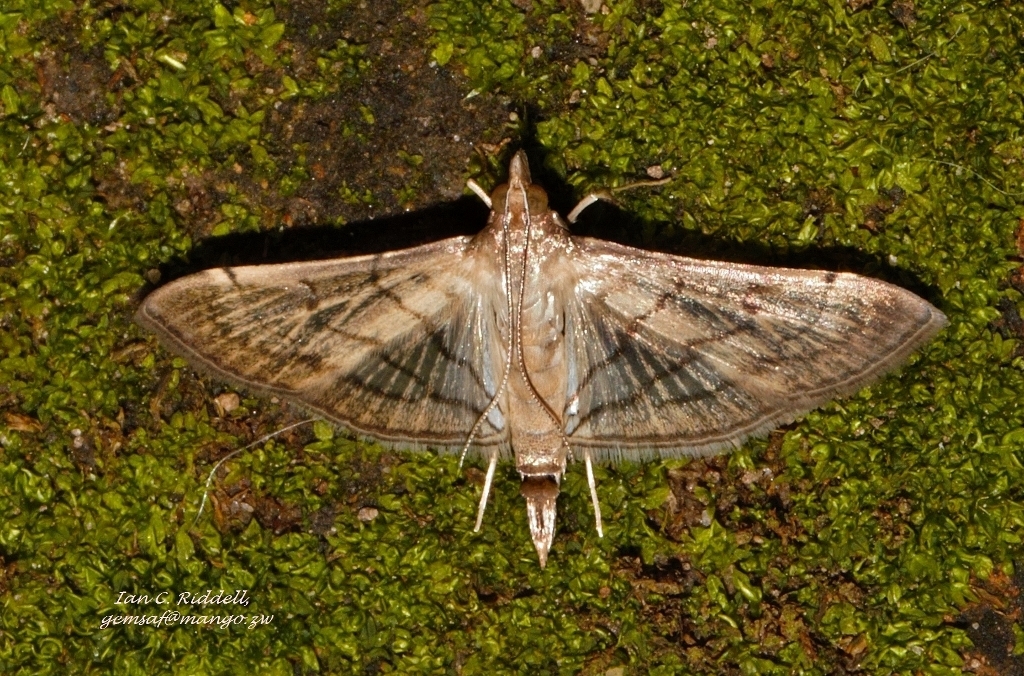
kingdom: Animalia
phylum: Arthropoda
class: Insecta
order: Lepidoptera
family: Crambidae
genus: Cnaphalocrocis
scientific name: Cnaphalocrocis Marasmia trapezalis
